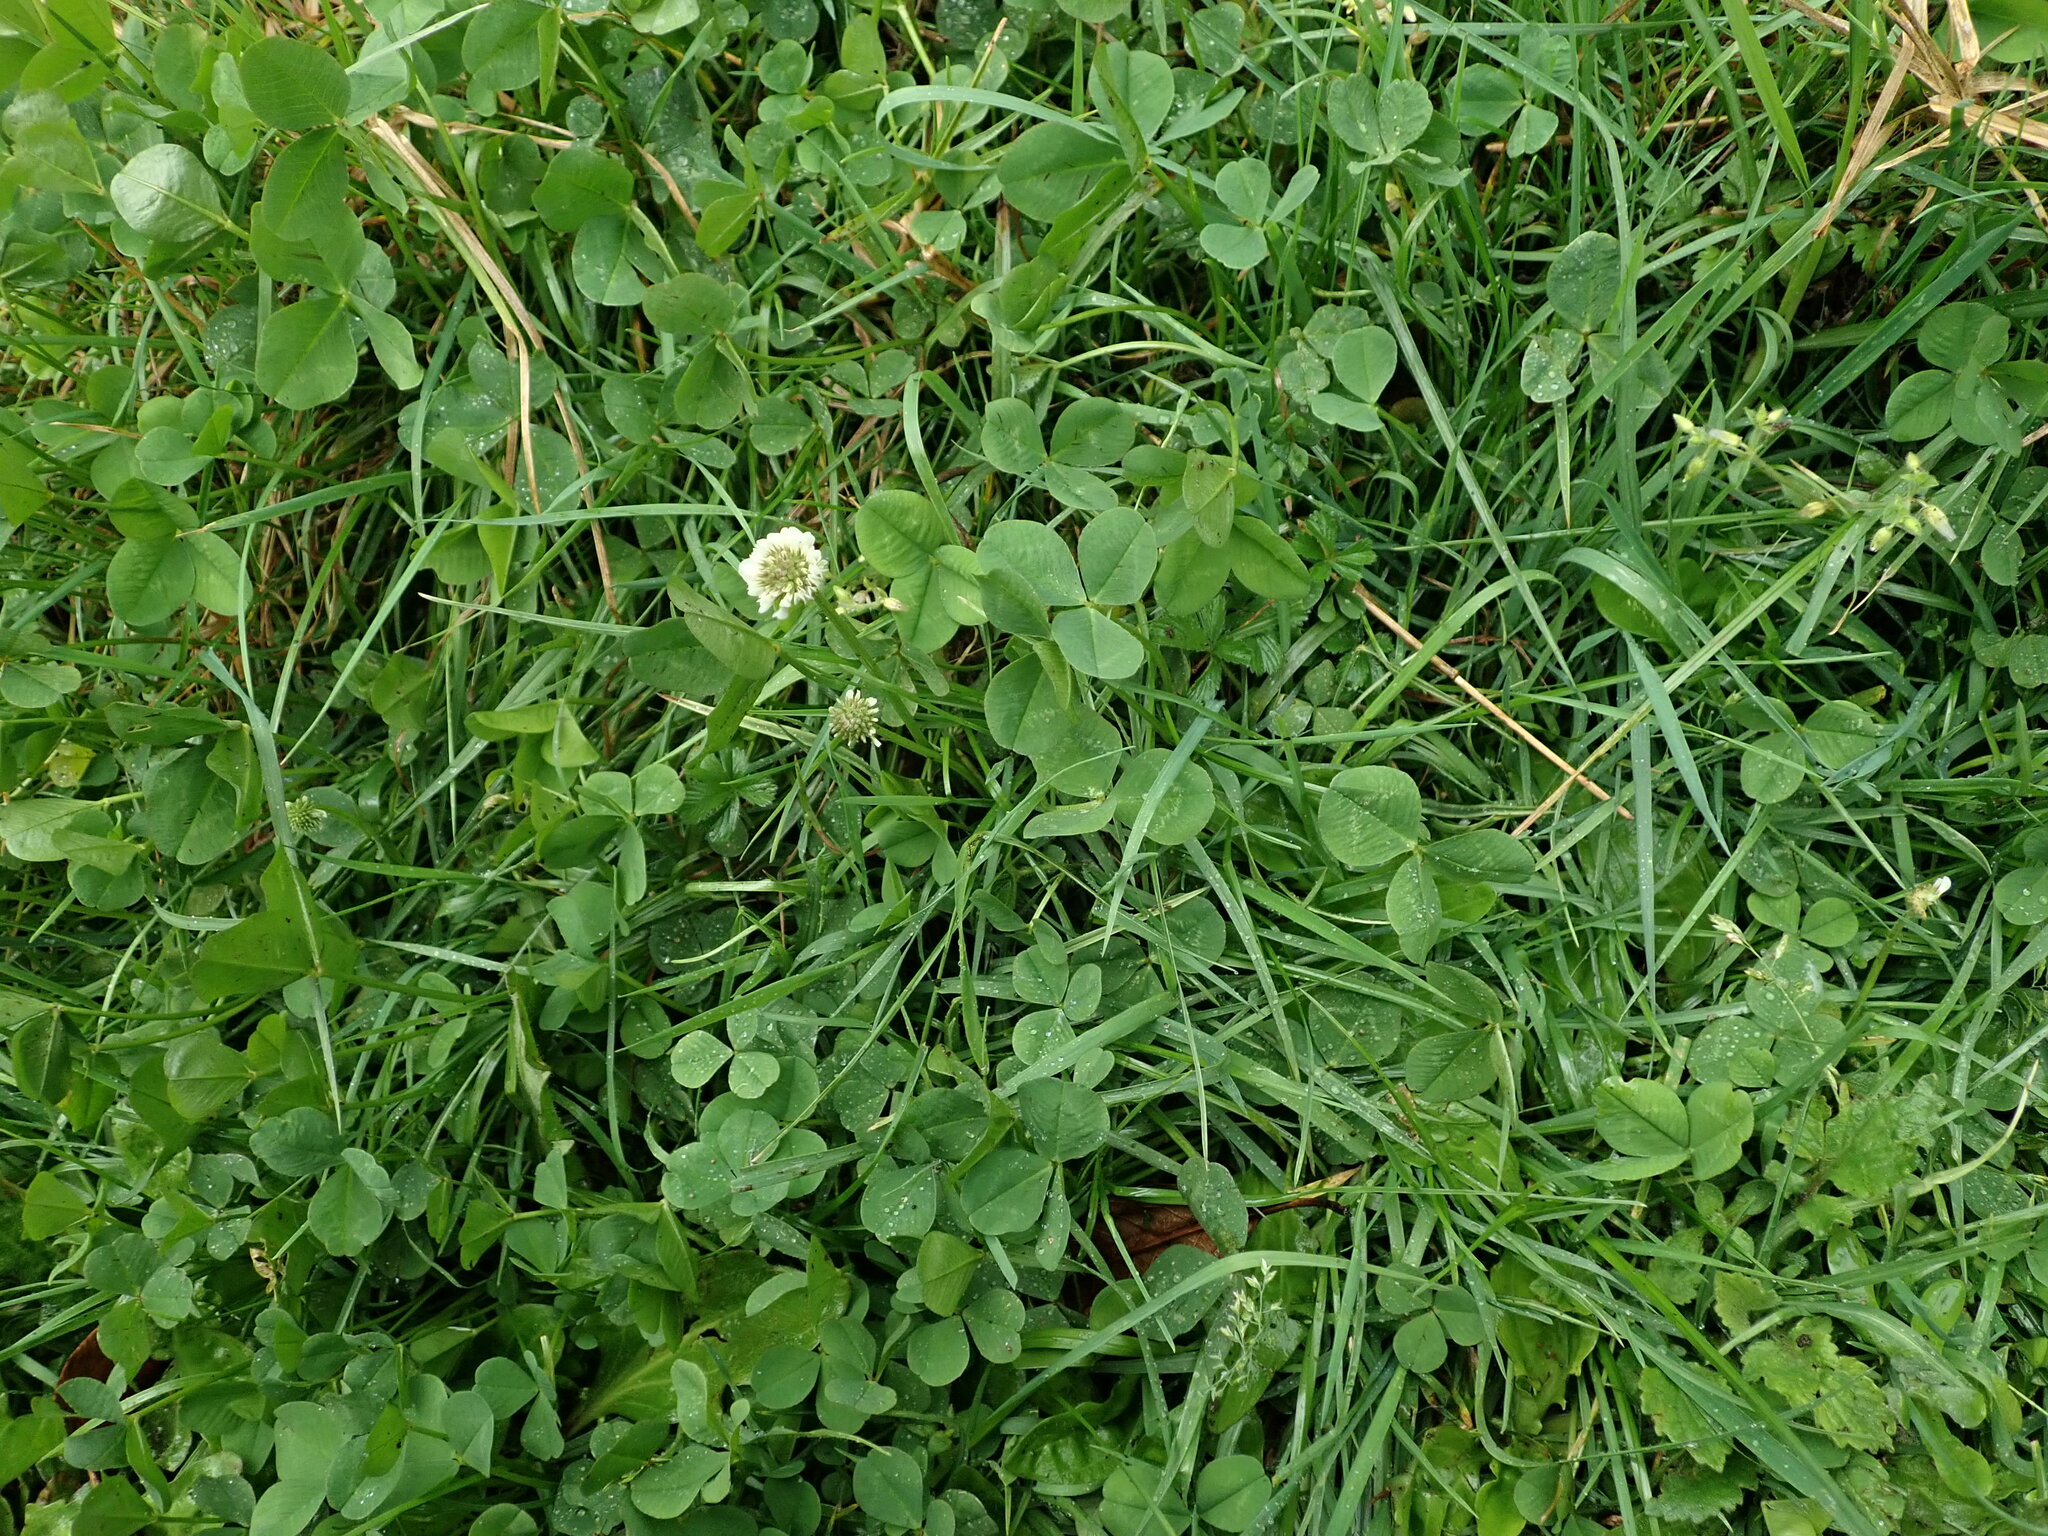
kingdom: Plantae
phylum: Tracheophyta
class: Magnoliopsida
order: Fabales
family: Fabaceae
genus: Trifolium
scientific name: Trifolium repens
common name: White clover
